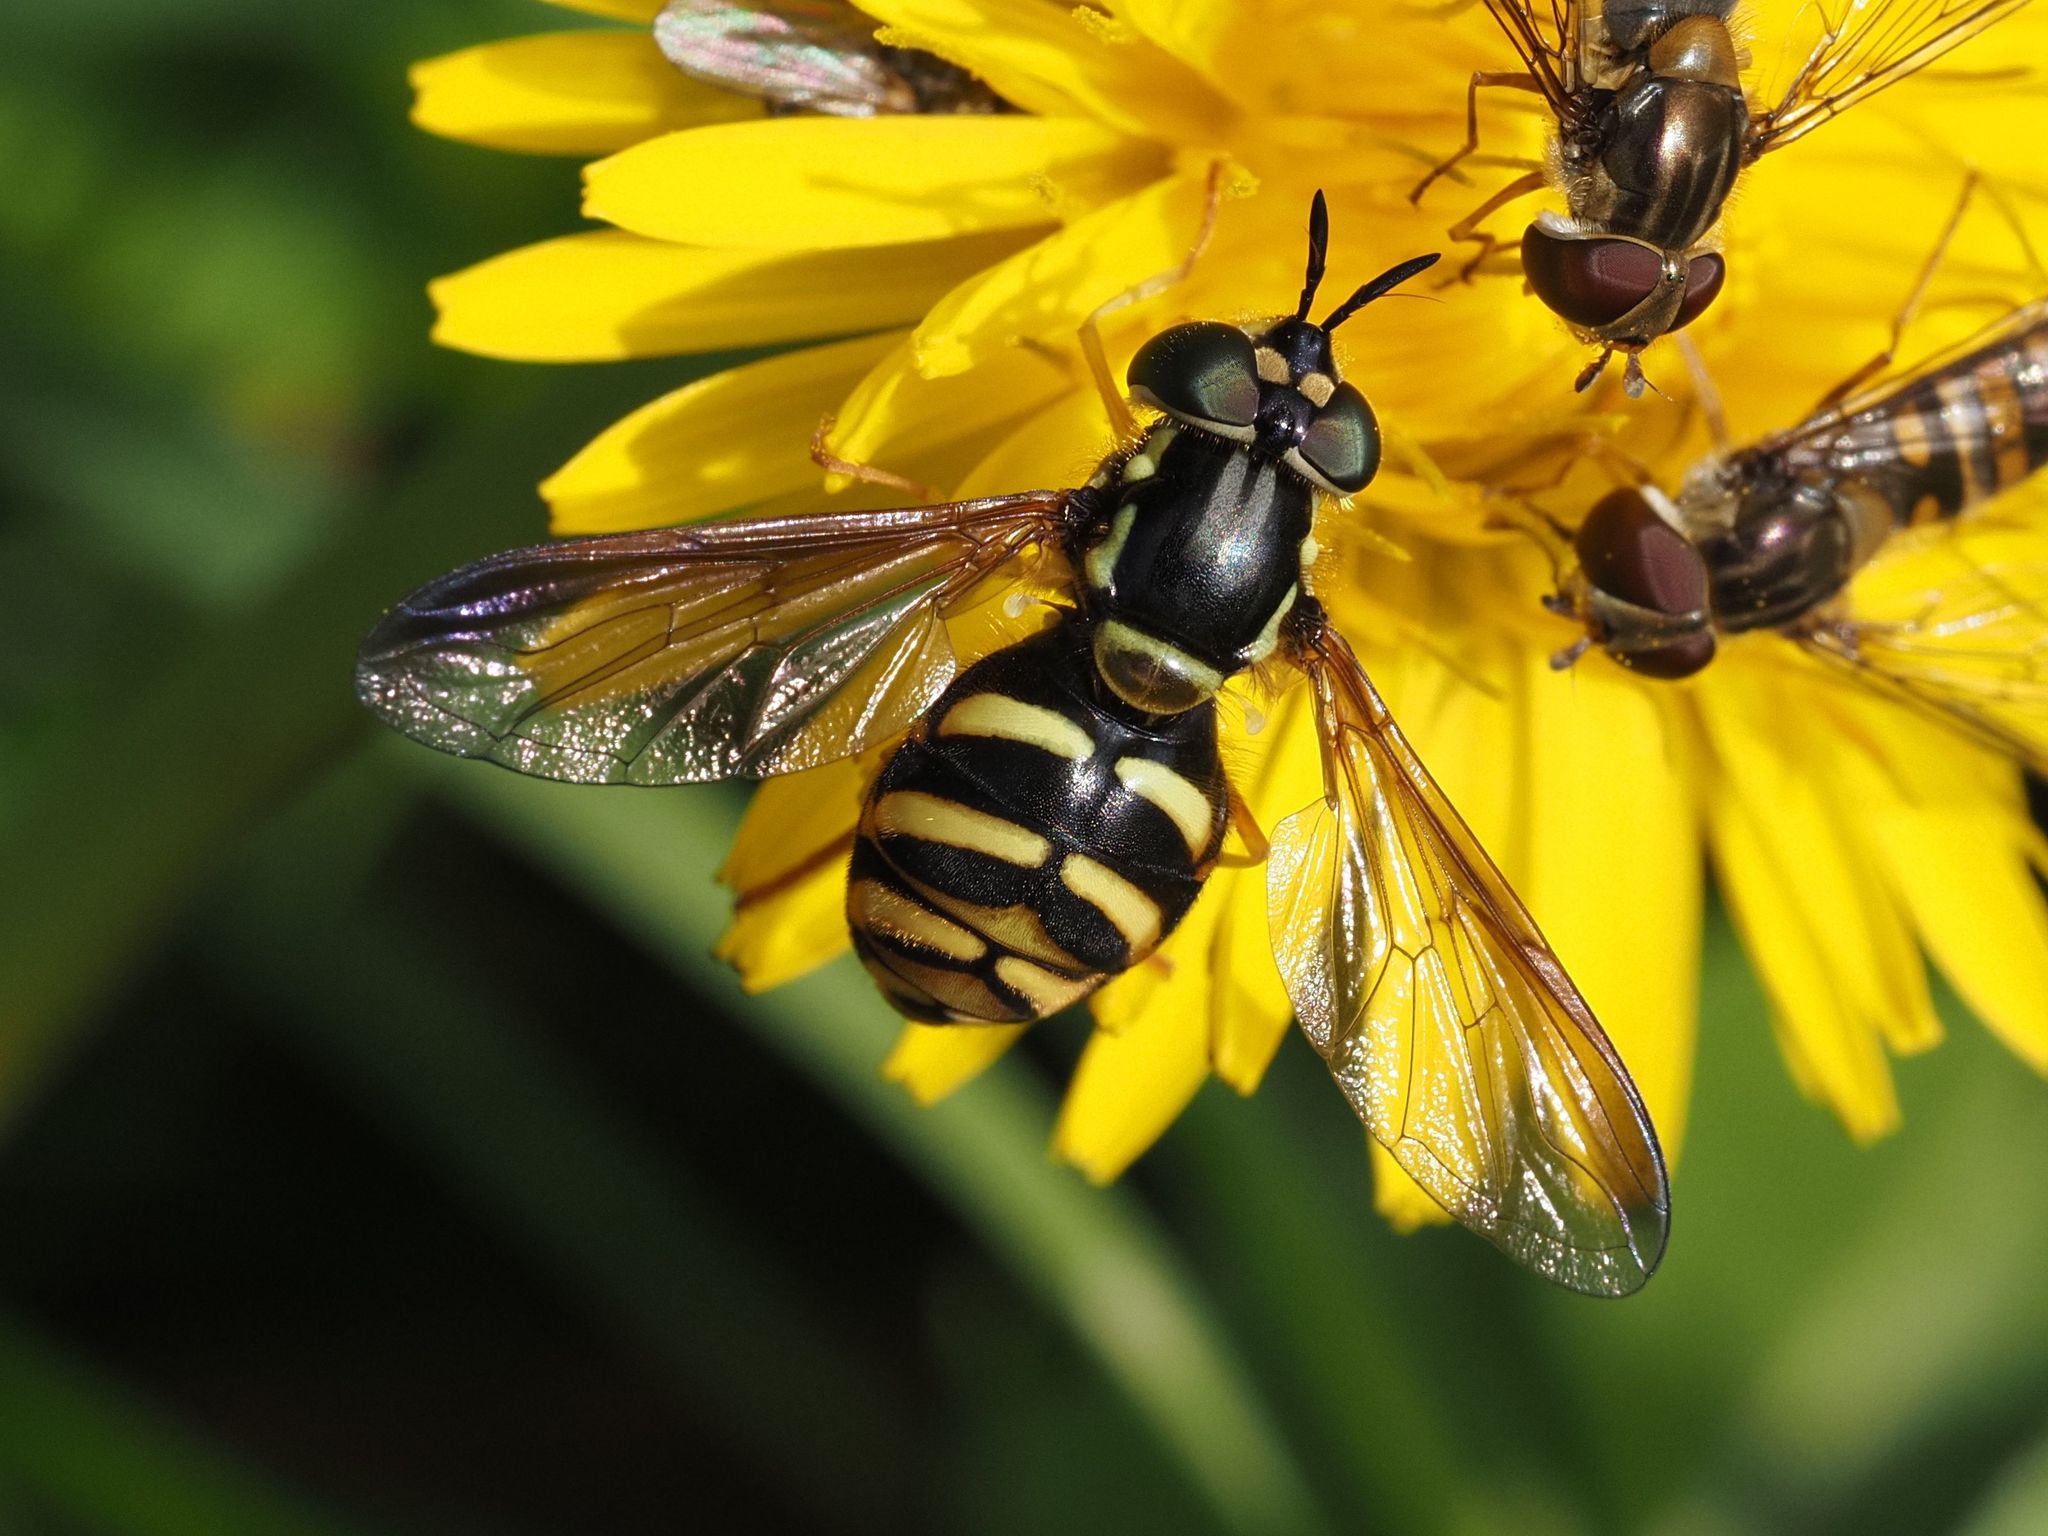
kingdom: Animalia
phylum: Arthropoda
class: Insecta
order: Diptera
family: Syrphidae
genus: Chrysotoxum
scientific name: Chrysotoxum intermedium
